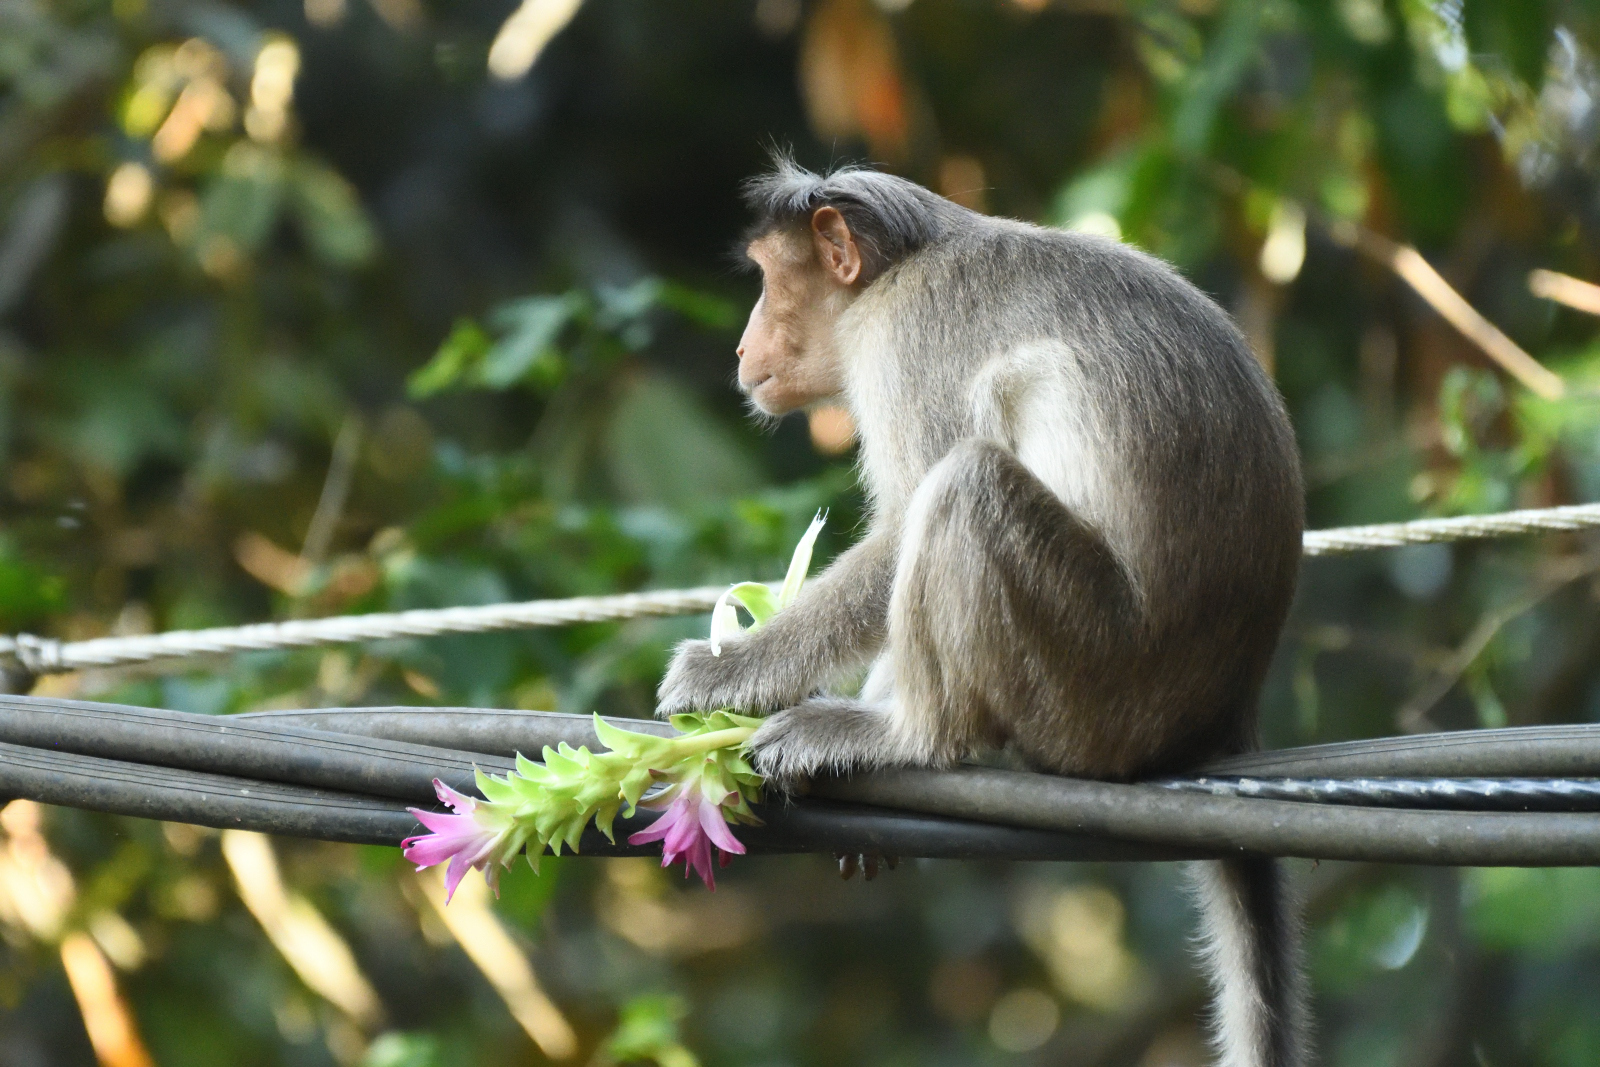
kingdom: Animalia
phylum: Chordata
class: Mammalia
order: Primates
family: Cercopithecidae
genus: Macaca
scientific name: Macaca radiata
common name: Bonnet macaque
